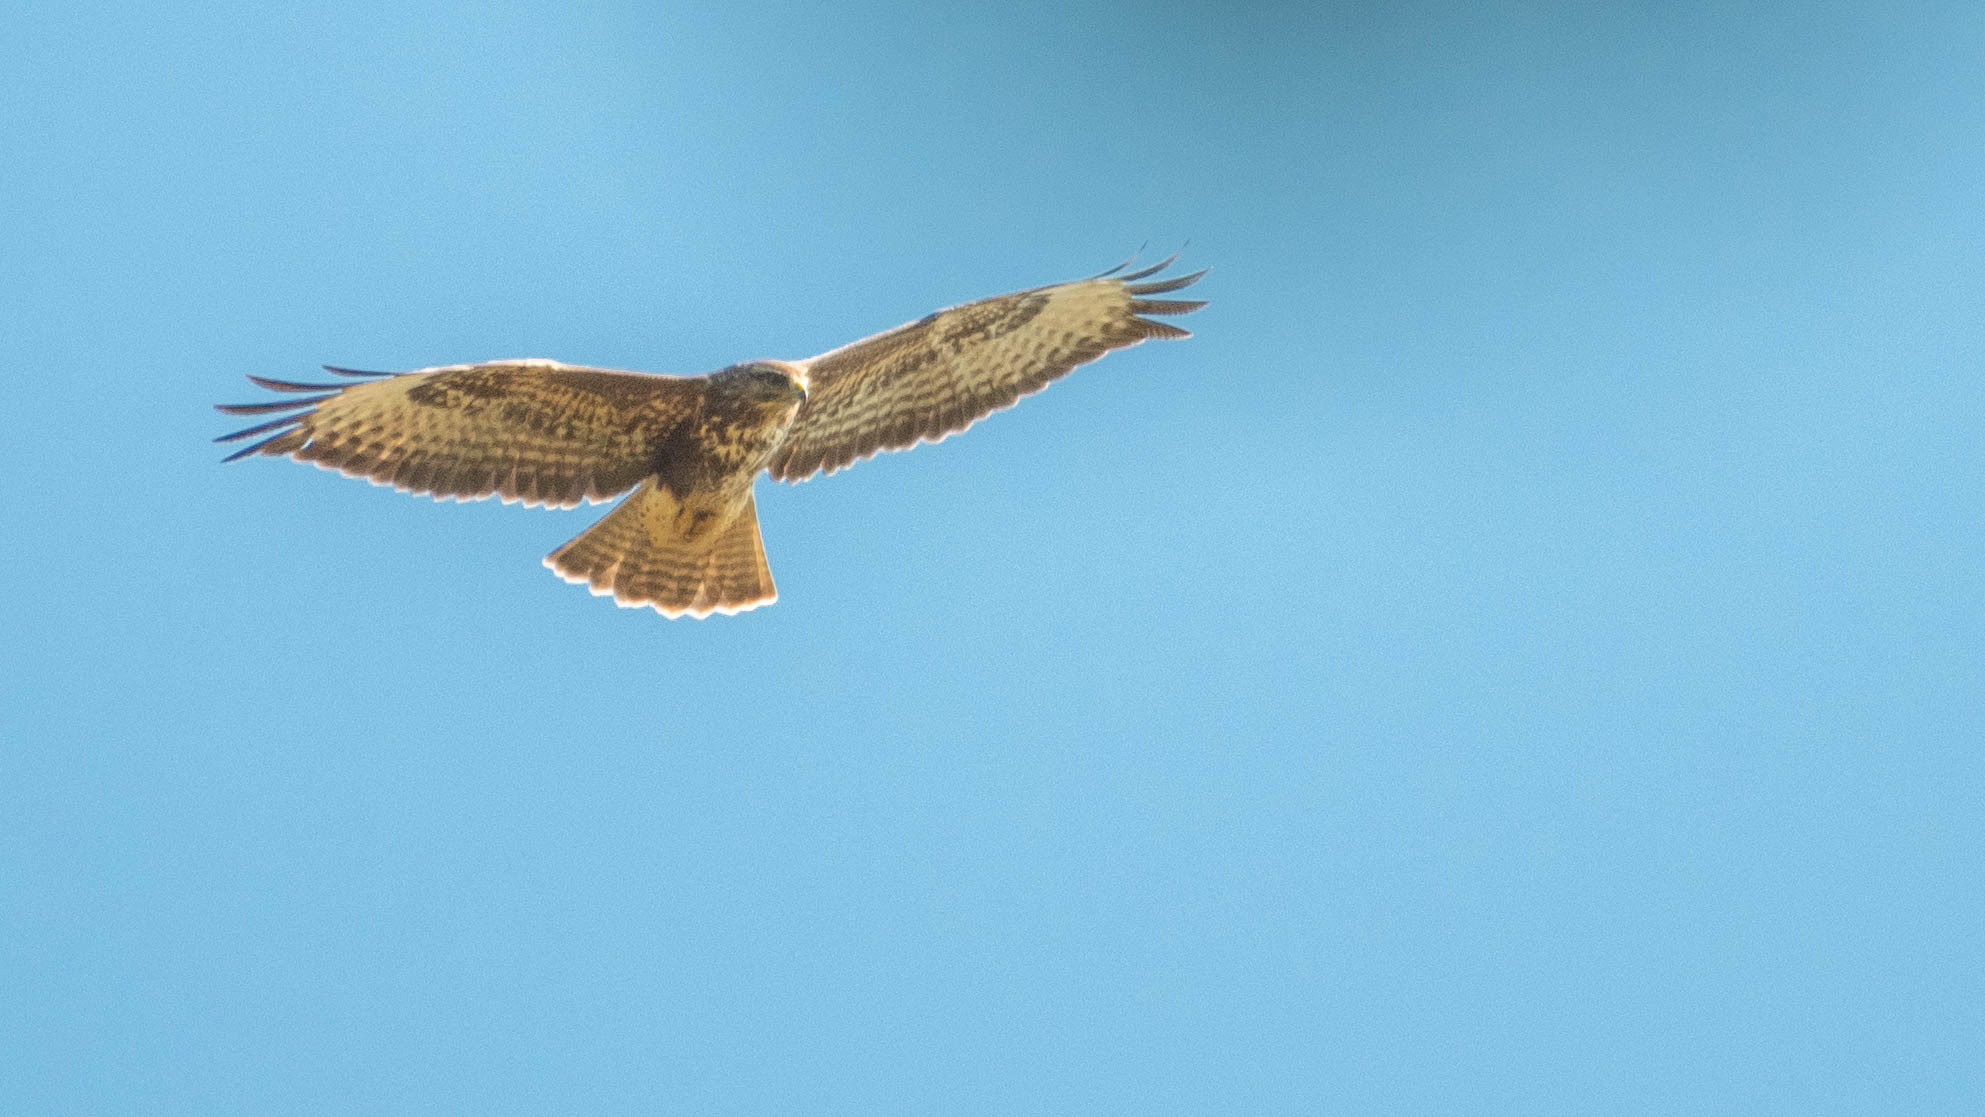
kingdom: Animalia
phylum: Chordata
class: Aves
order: Accipitriformes
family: Accipitridae
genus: Buteo
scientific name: Buteo buteo
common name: Common buzzard
